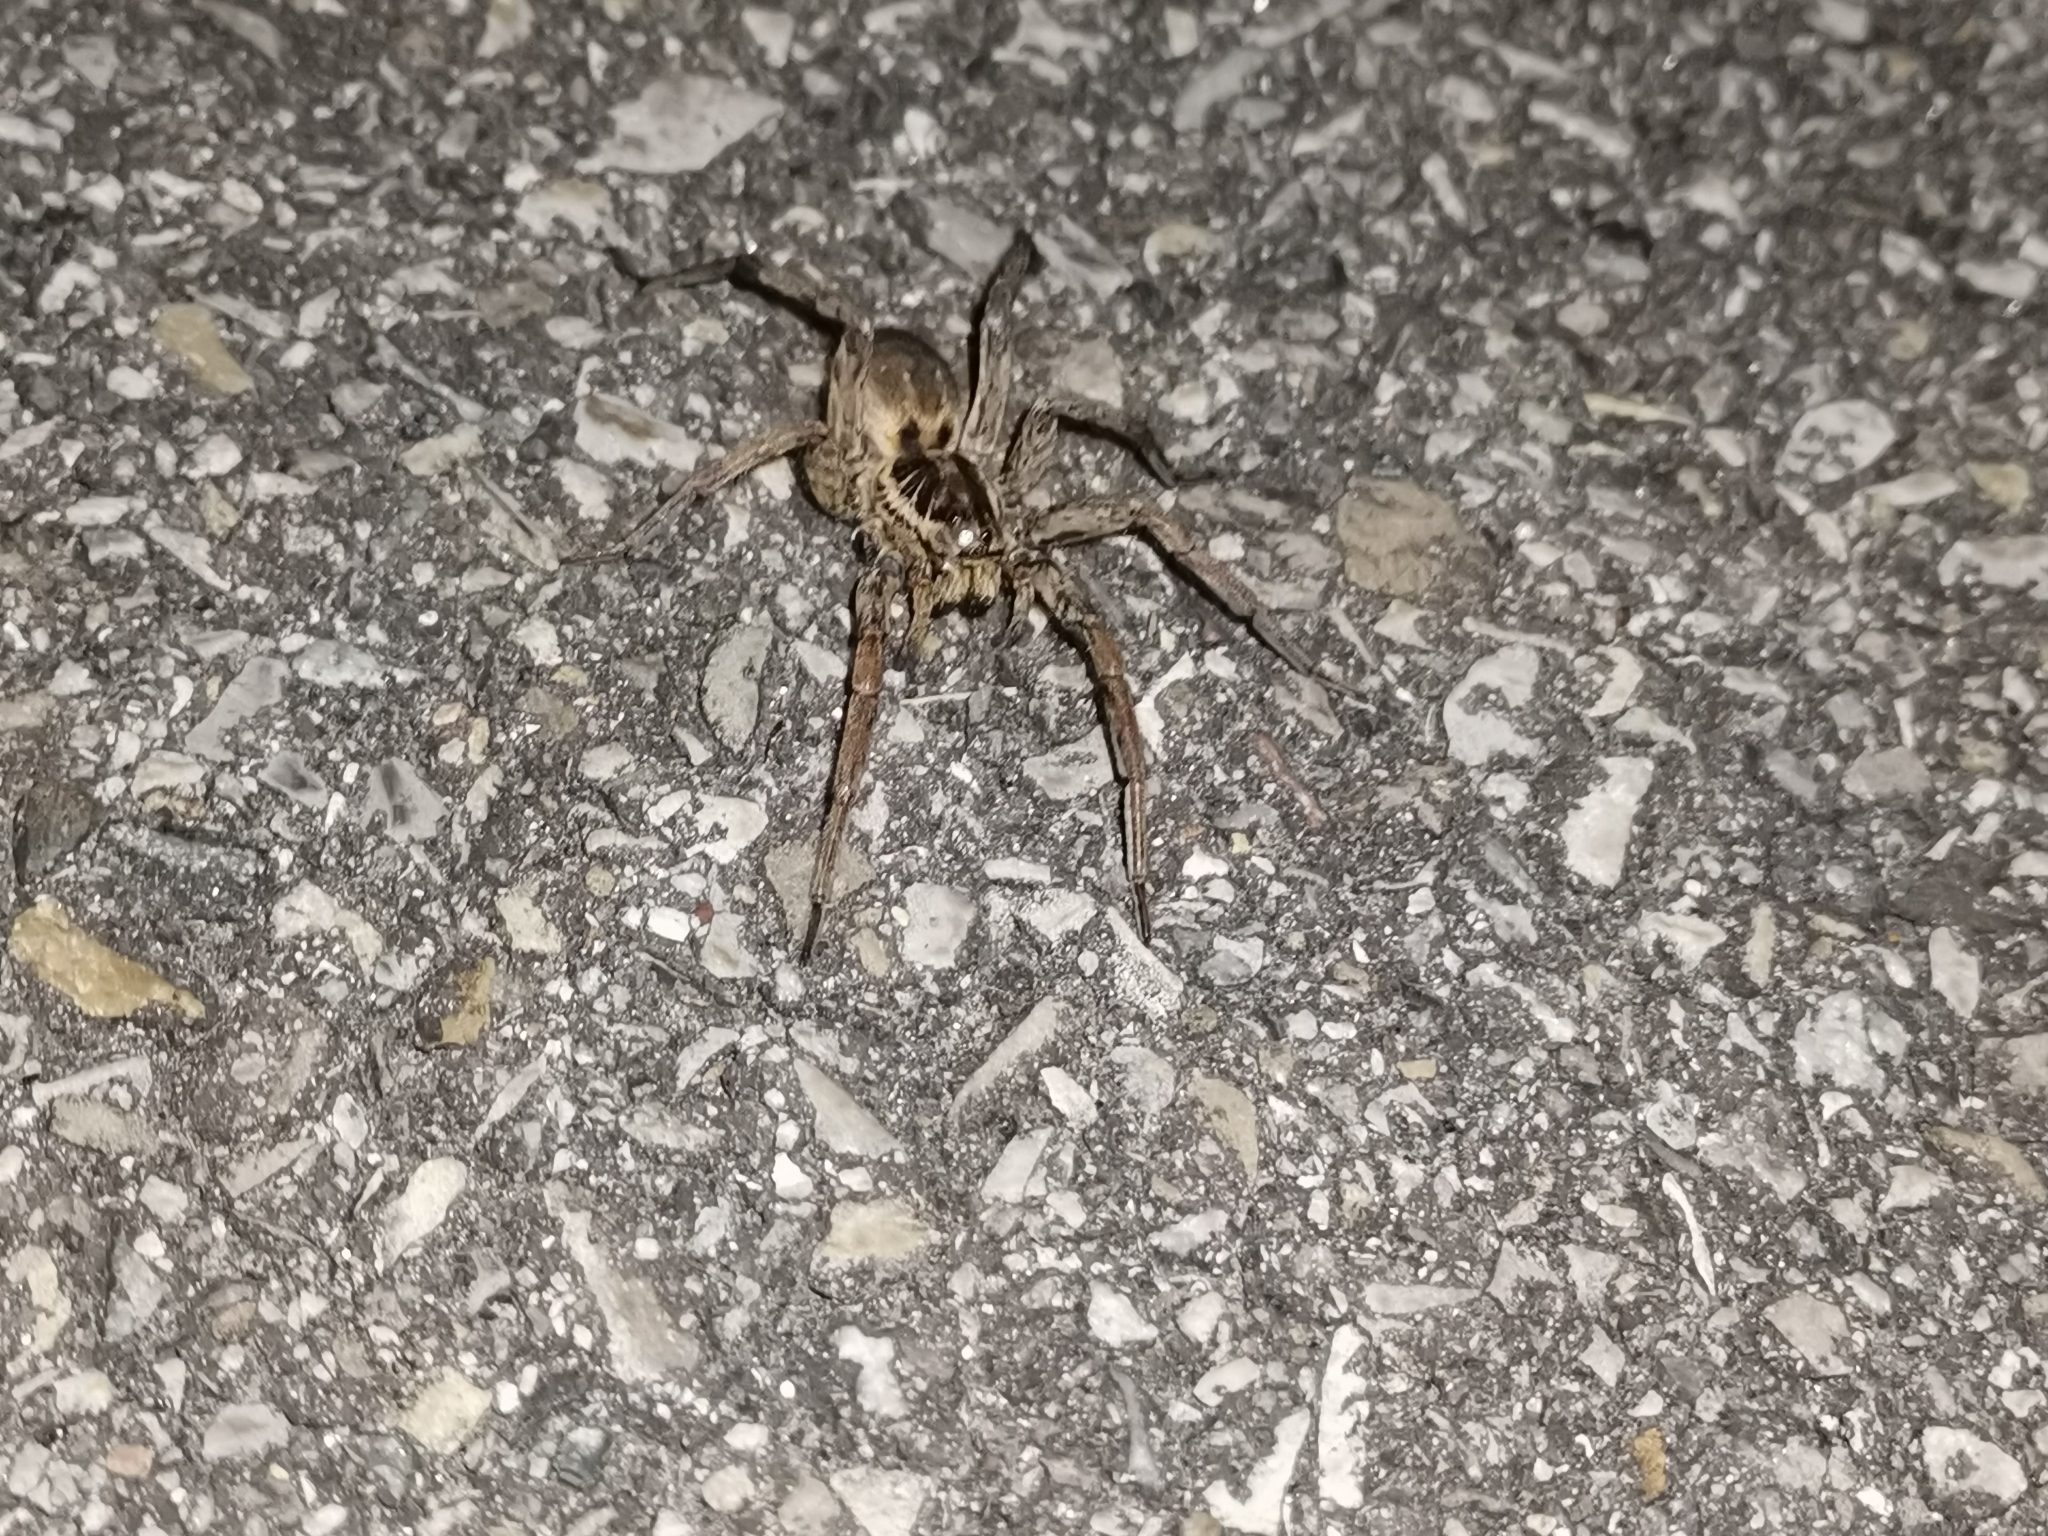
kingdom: Animalia
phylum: Arthropoda
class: Arachnida
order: Araneae
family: Lycosidae
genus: Hogna
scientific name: Hogna radiata
